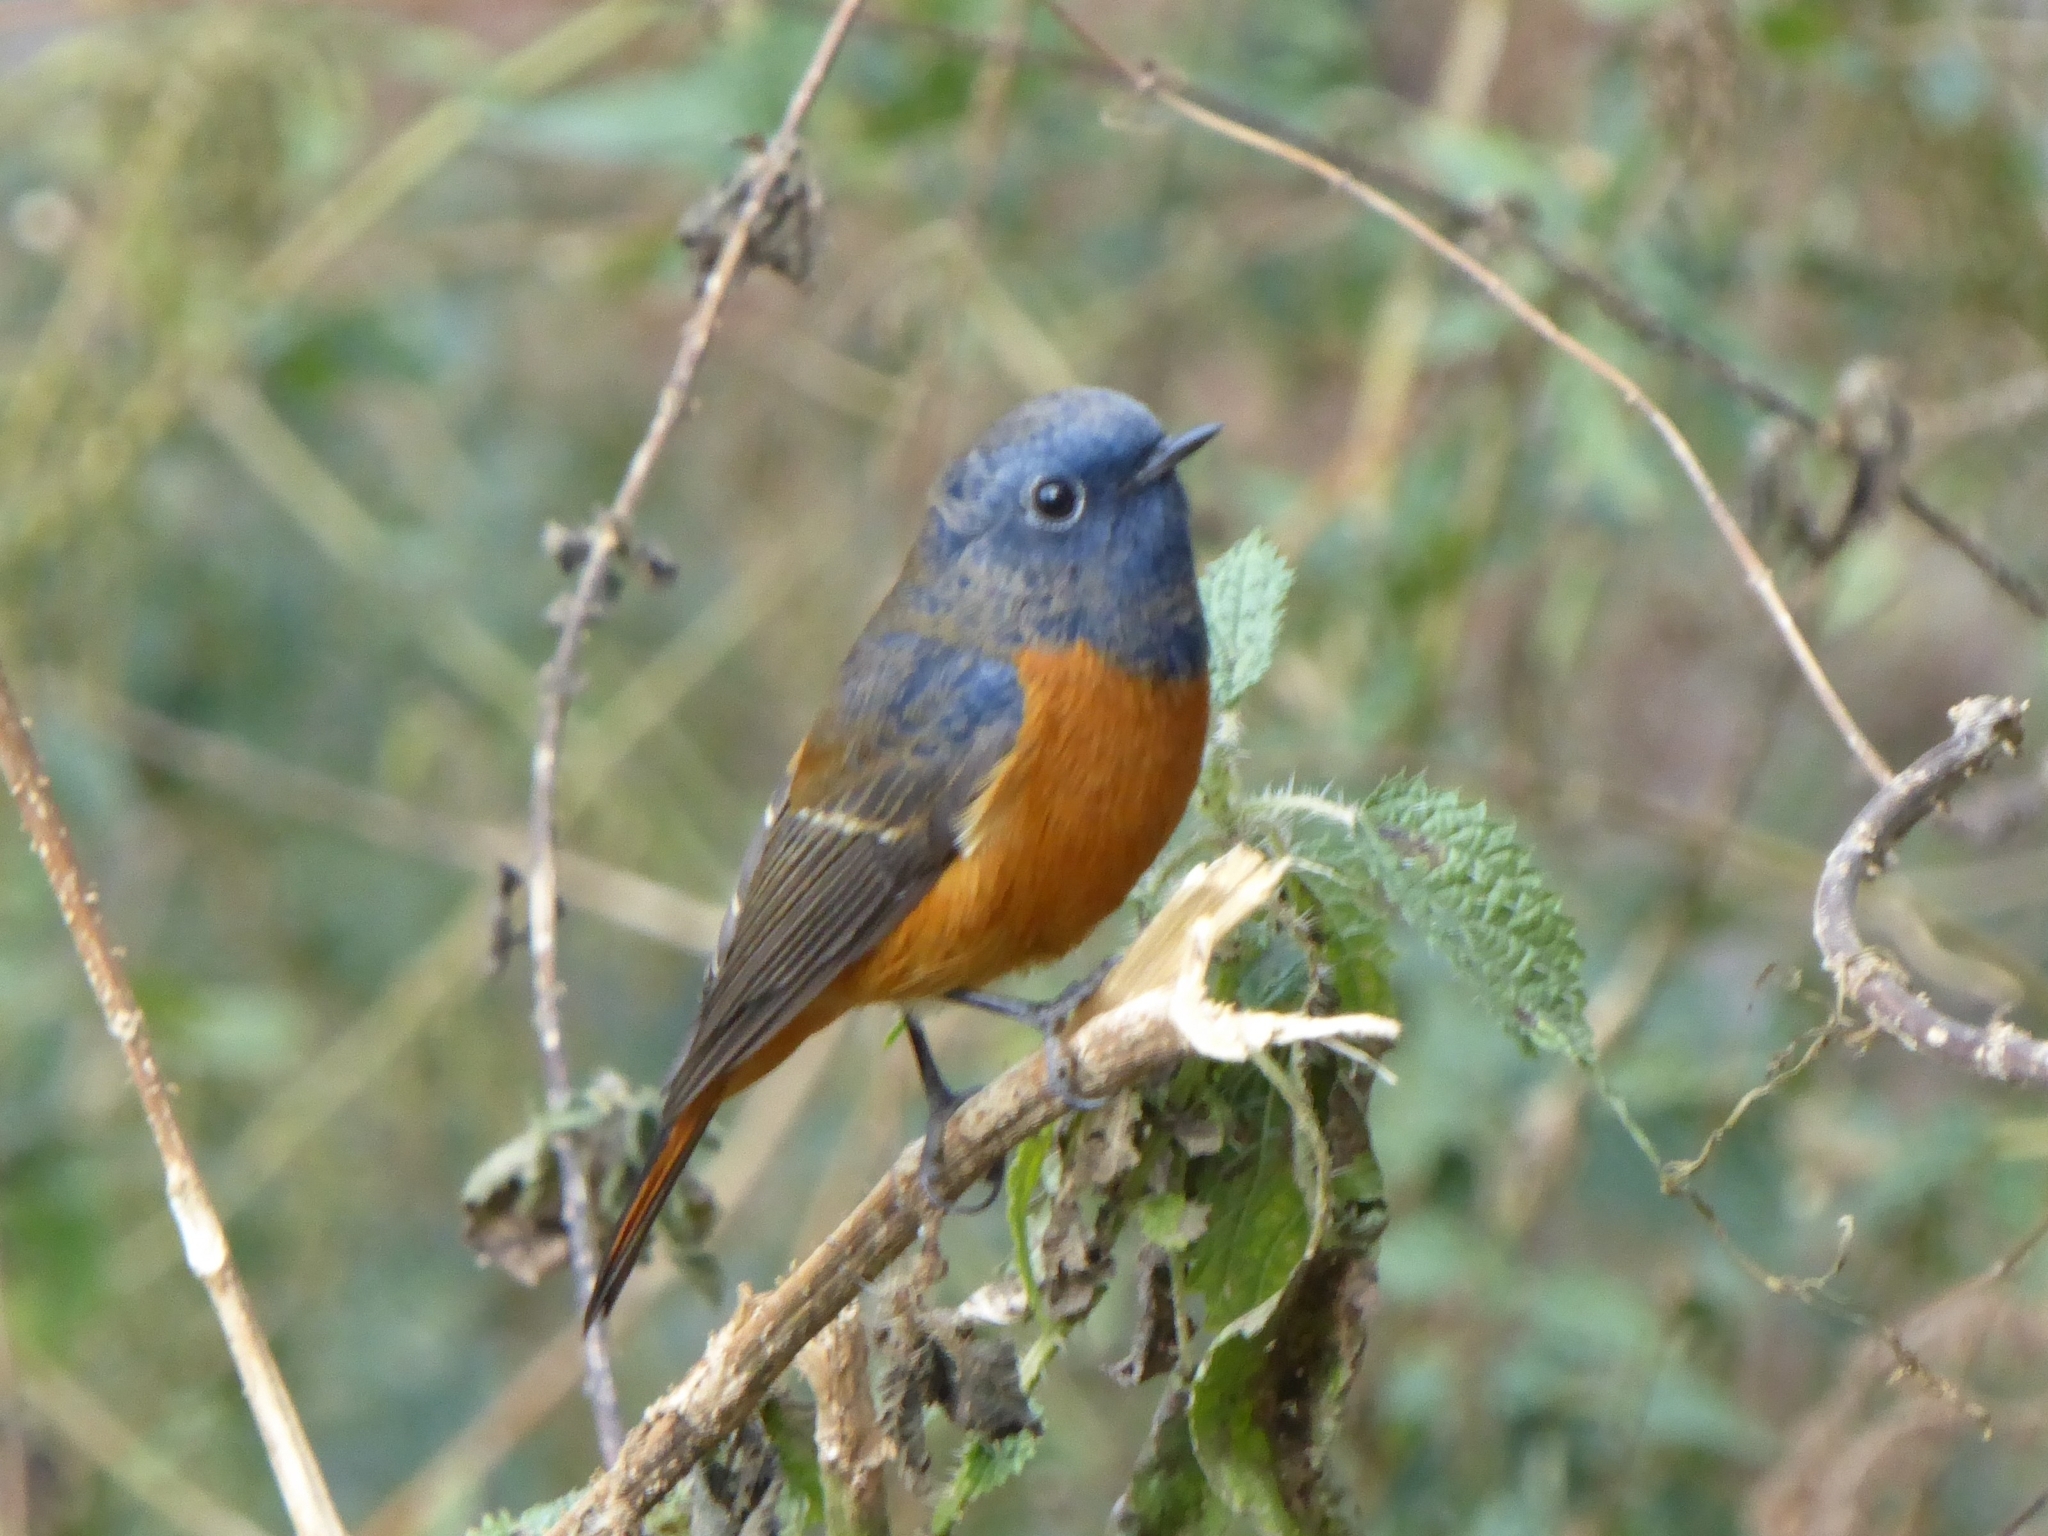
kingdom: Animalia
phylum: Chordata
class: Aves
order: Passeriformes
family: Muscicapidae
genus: Phoenicurus
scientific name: Phoenicurus frontalis
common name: Blue-fronted redstart
